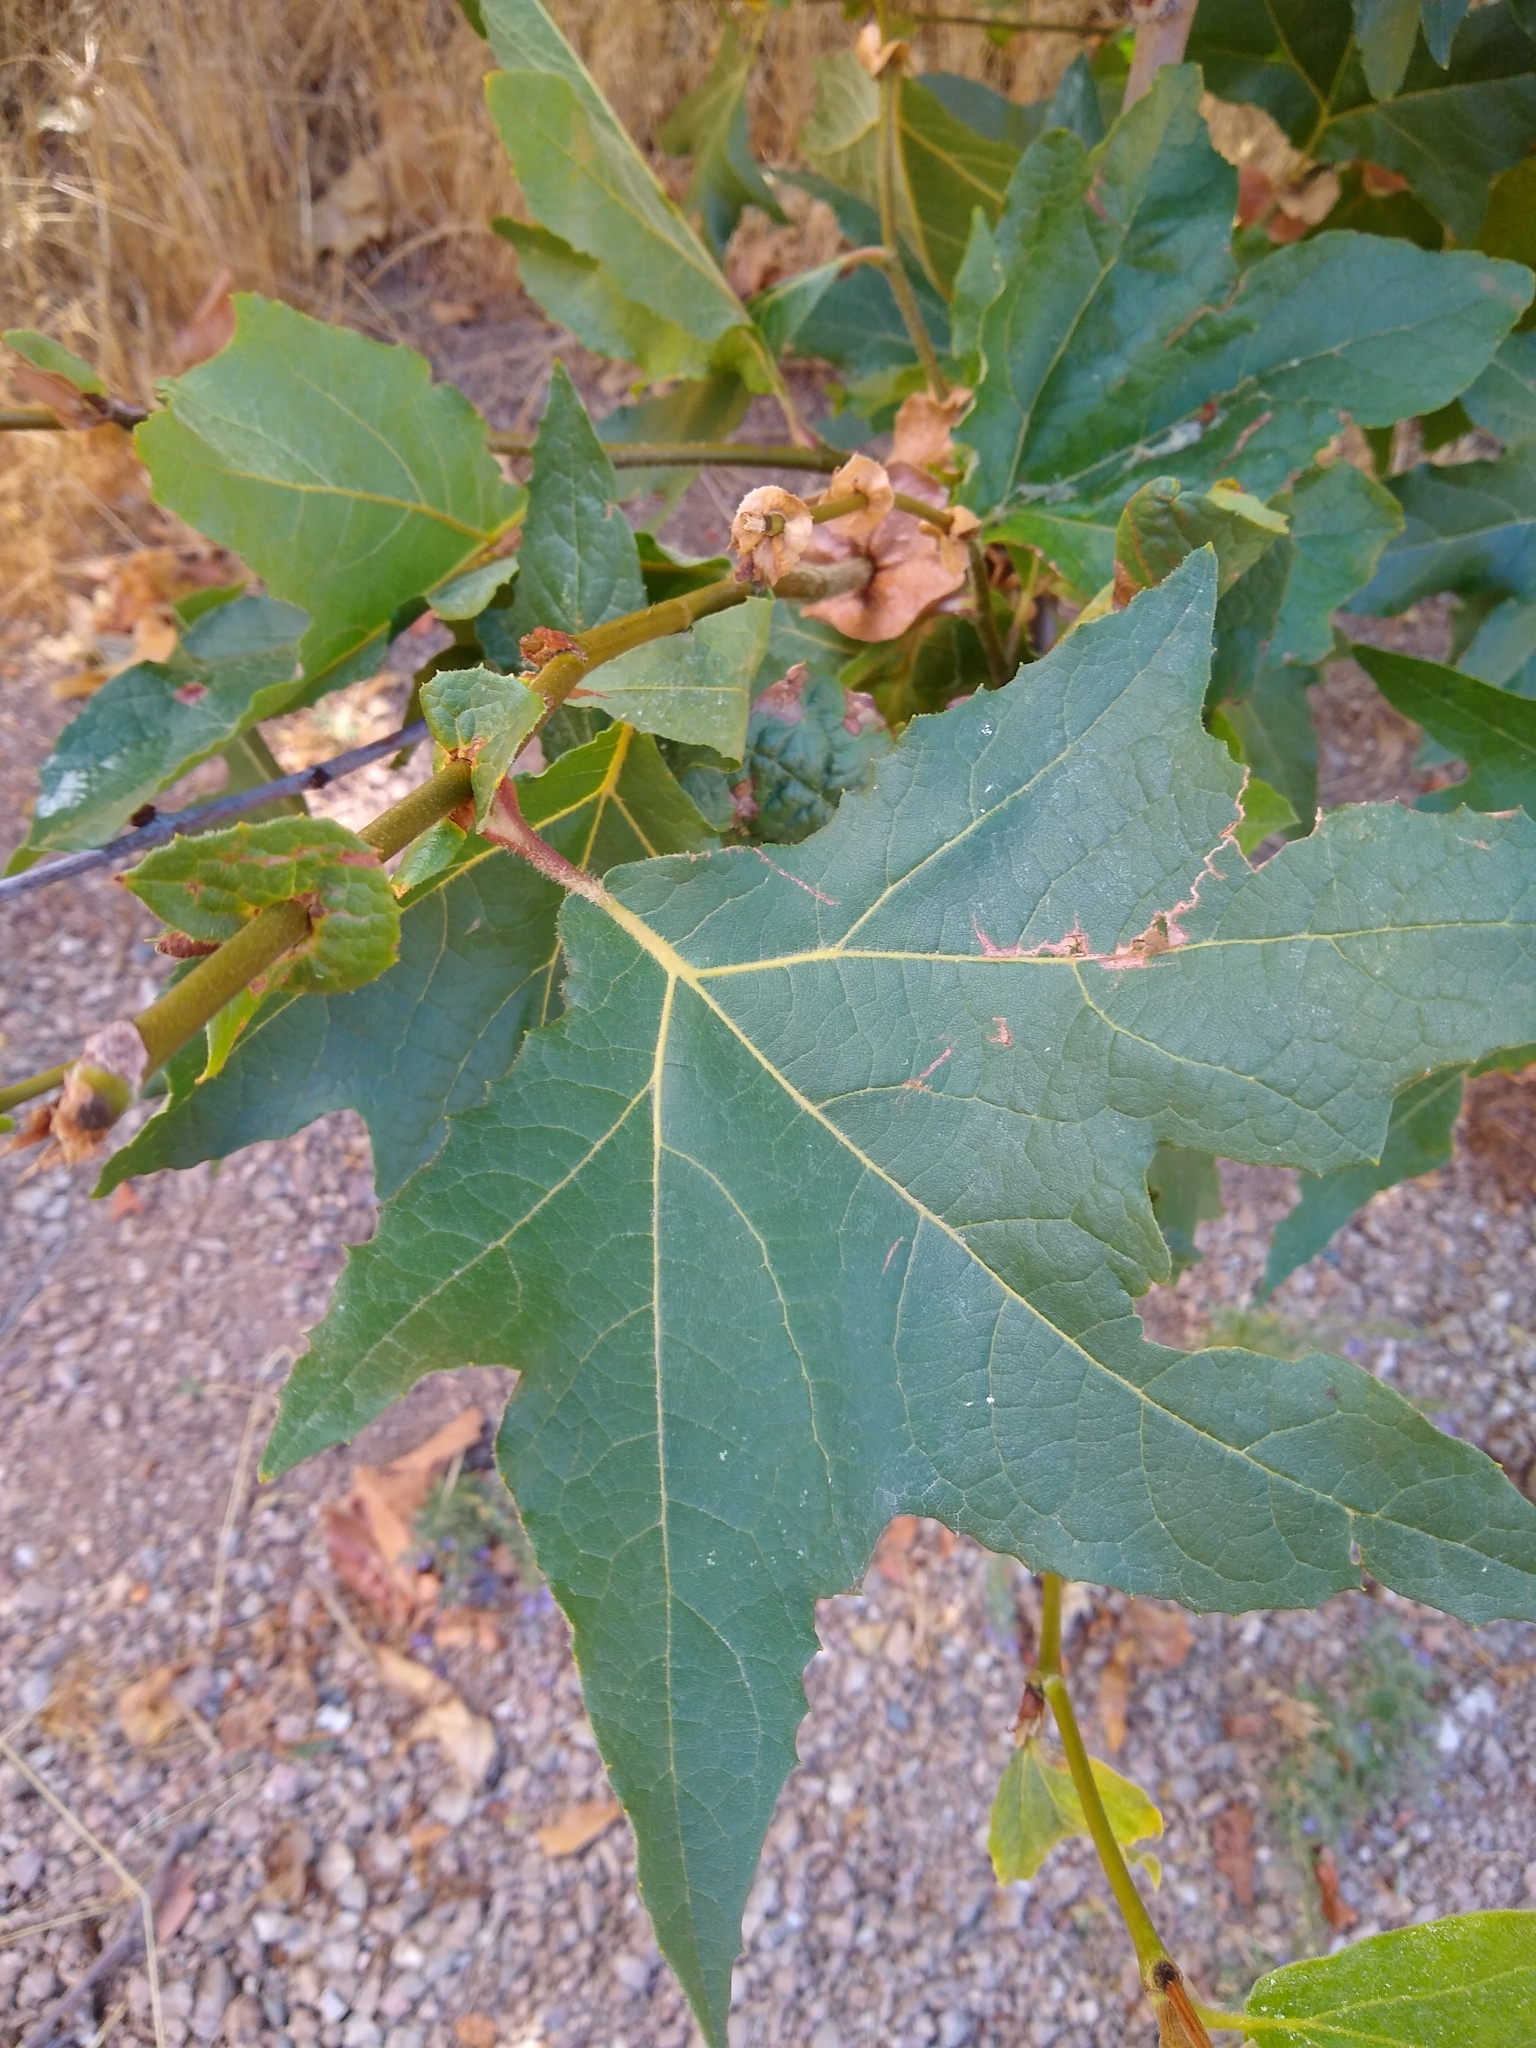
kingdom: Plantae
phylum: Tracheophyta
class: Magnoliopsida
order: Proteales
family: Platanaceae
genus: Platanus
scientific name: Platanus racemosa
